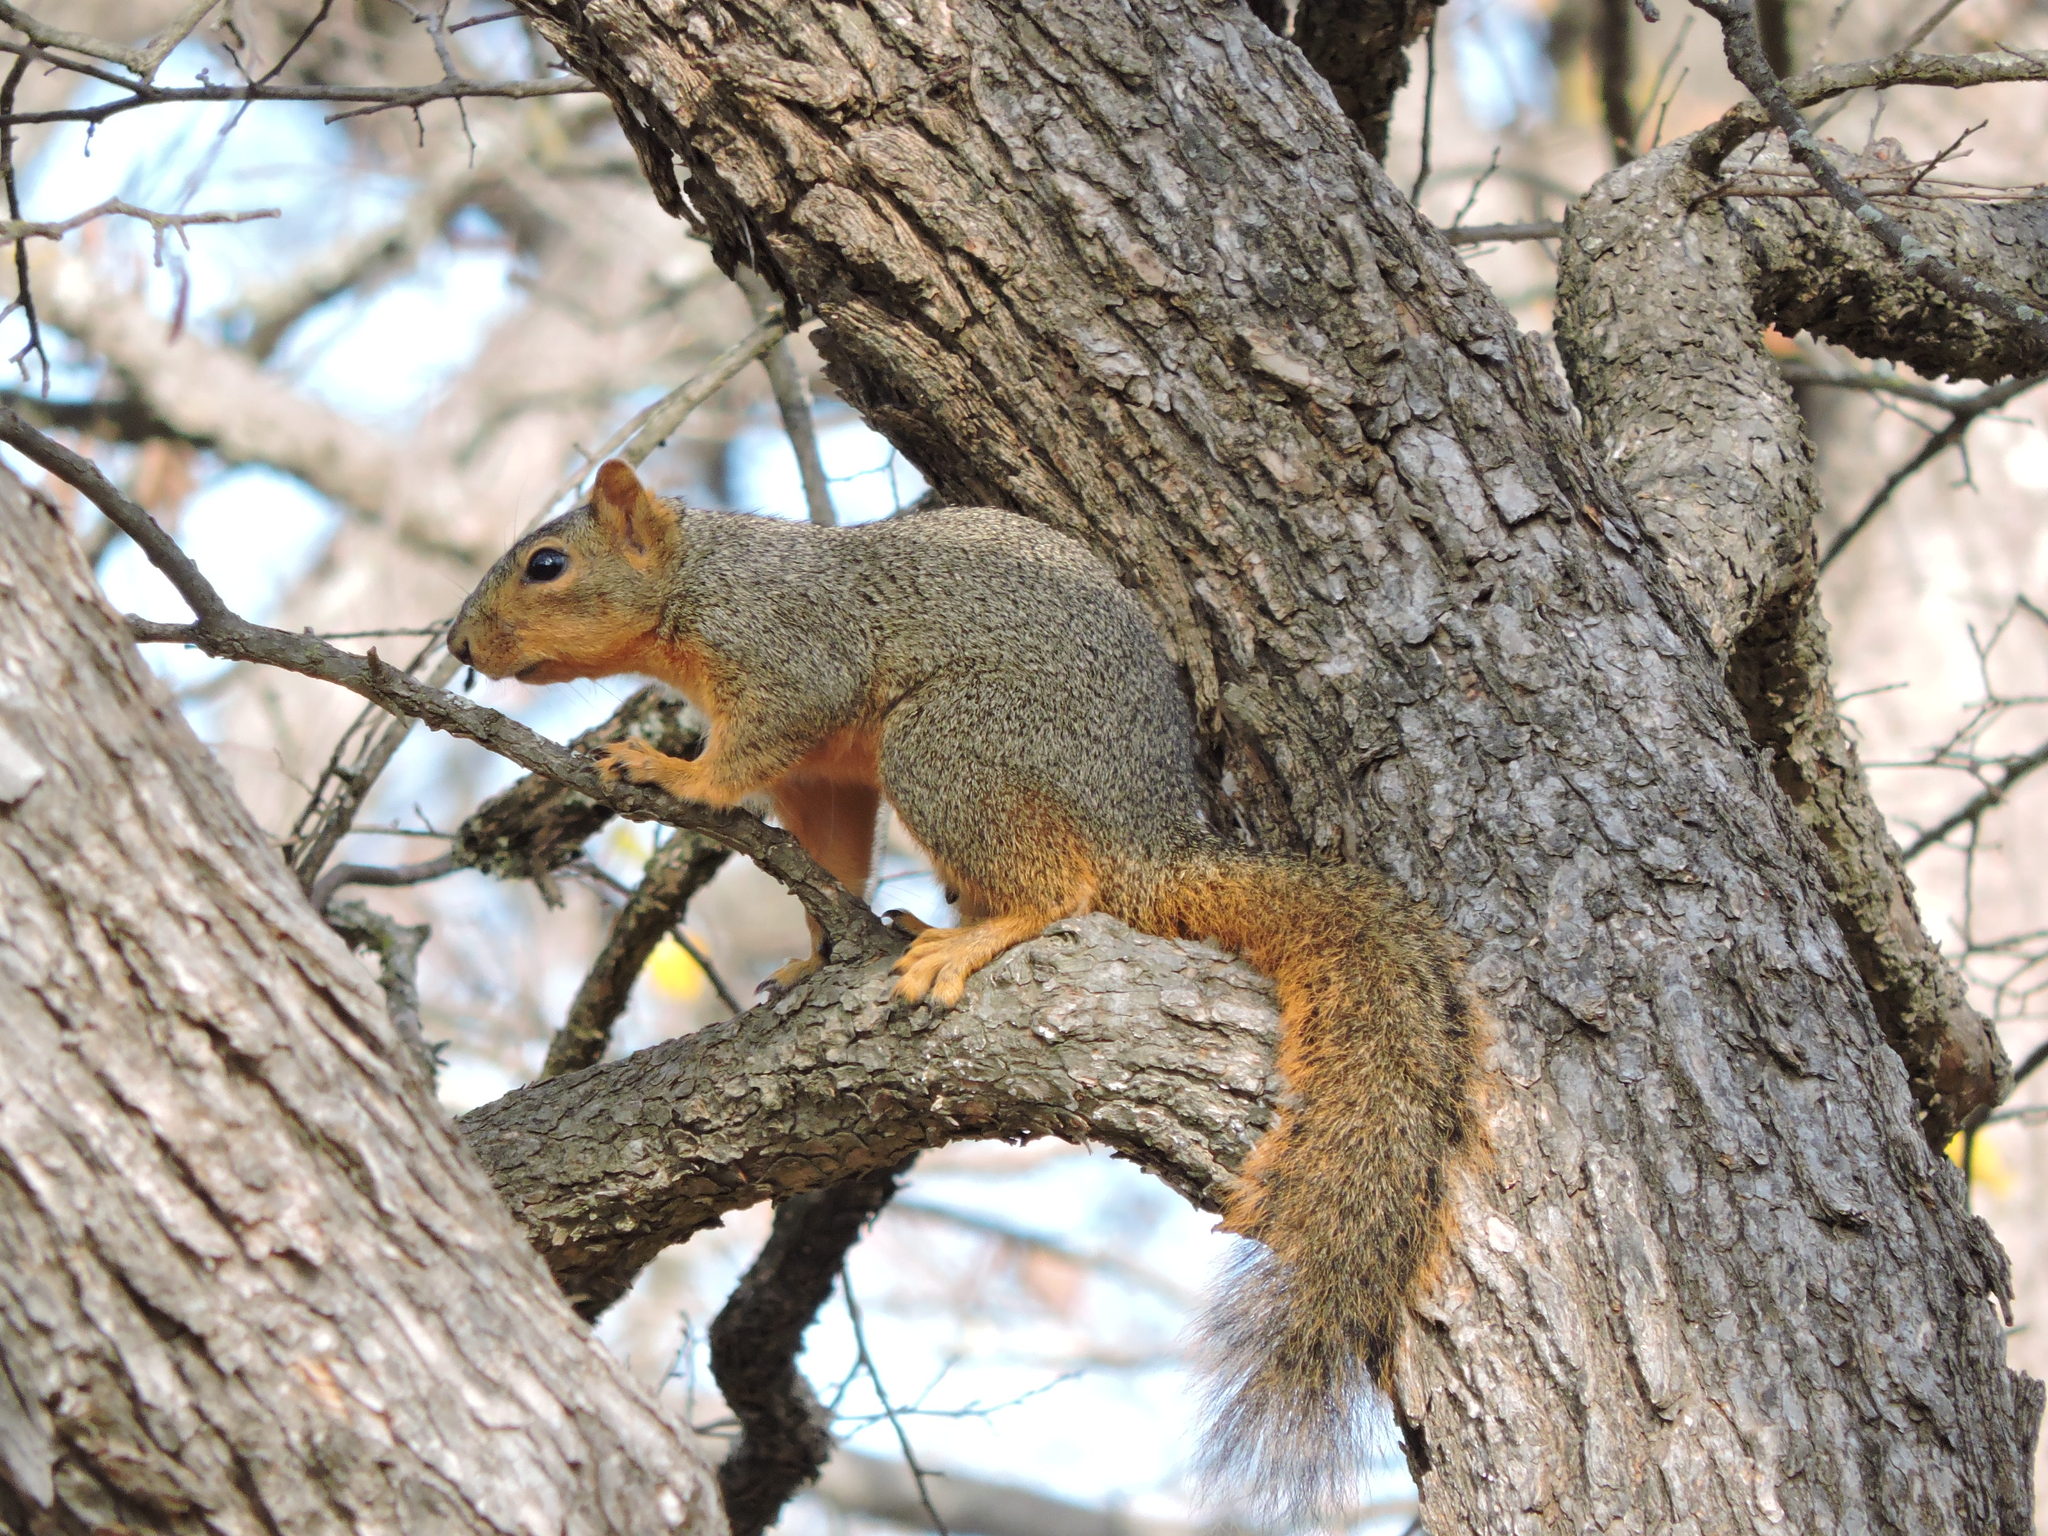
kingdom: Animalia
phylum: Chordata
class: Mammalia
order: Rodentia
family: Sciuridae
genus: Sciurus
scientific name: Sciurus niger
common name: Fox squirrel
